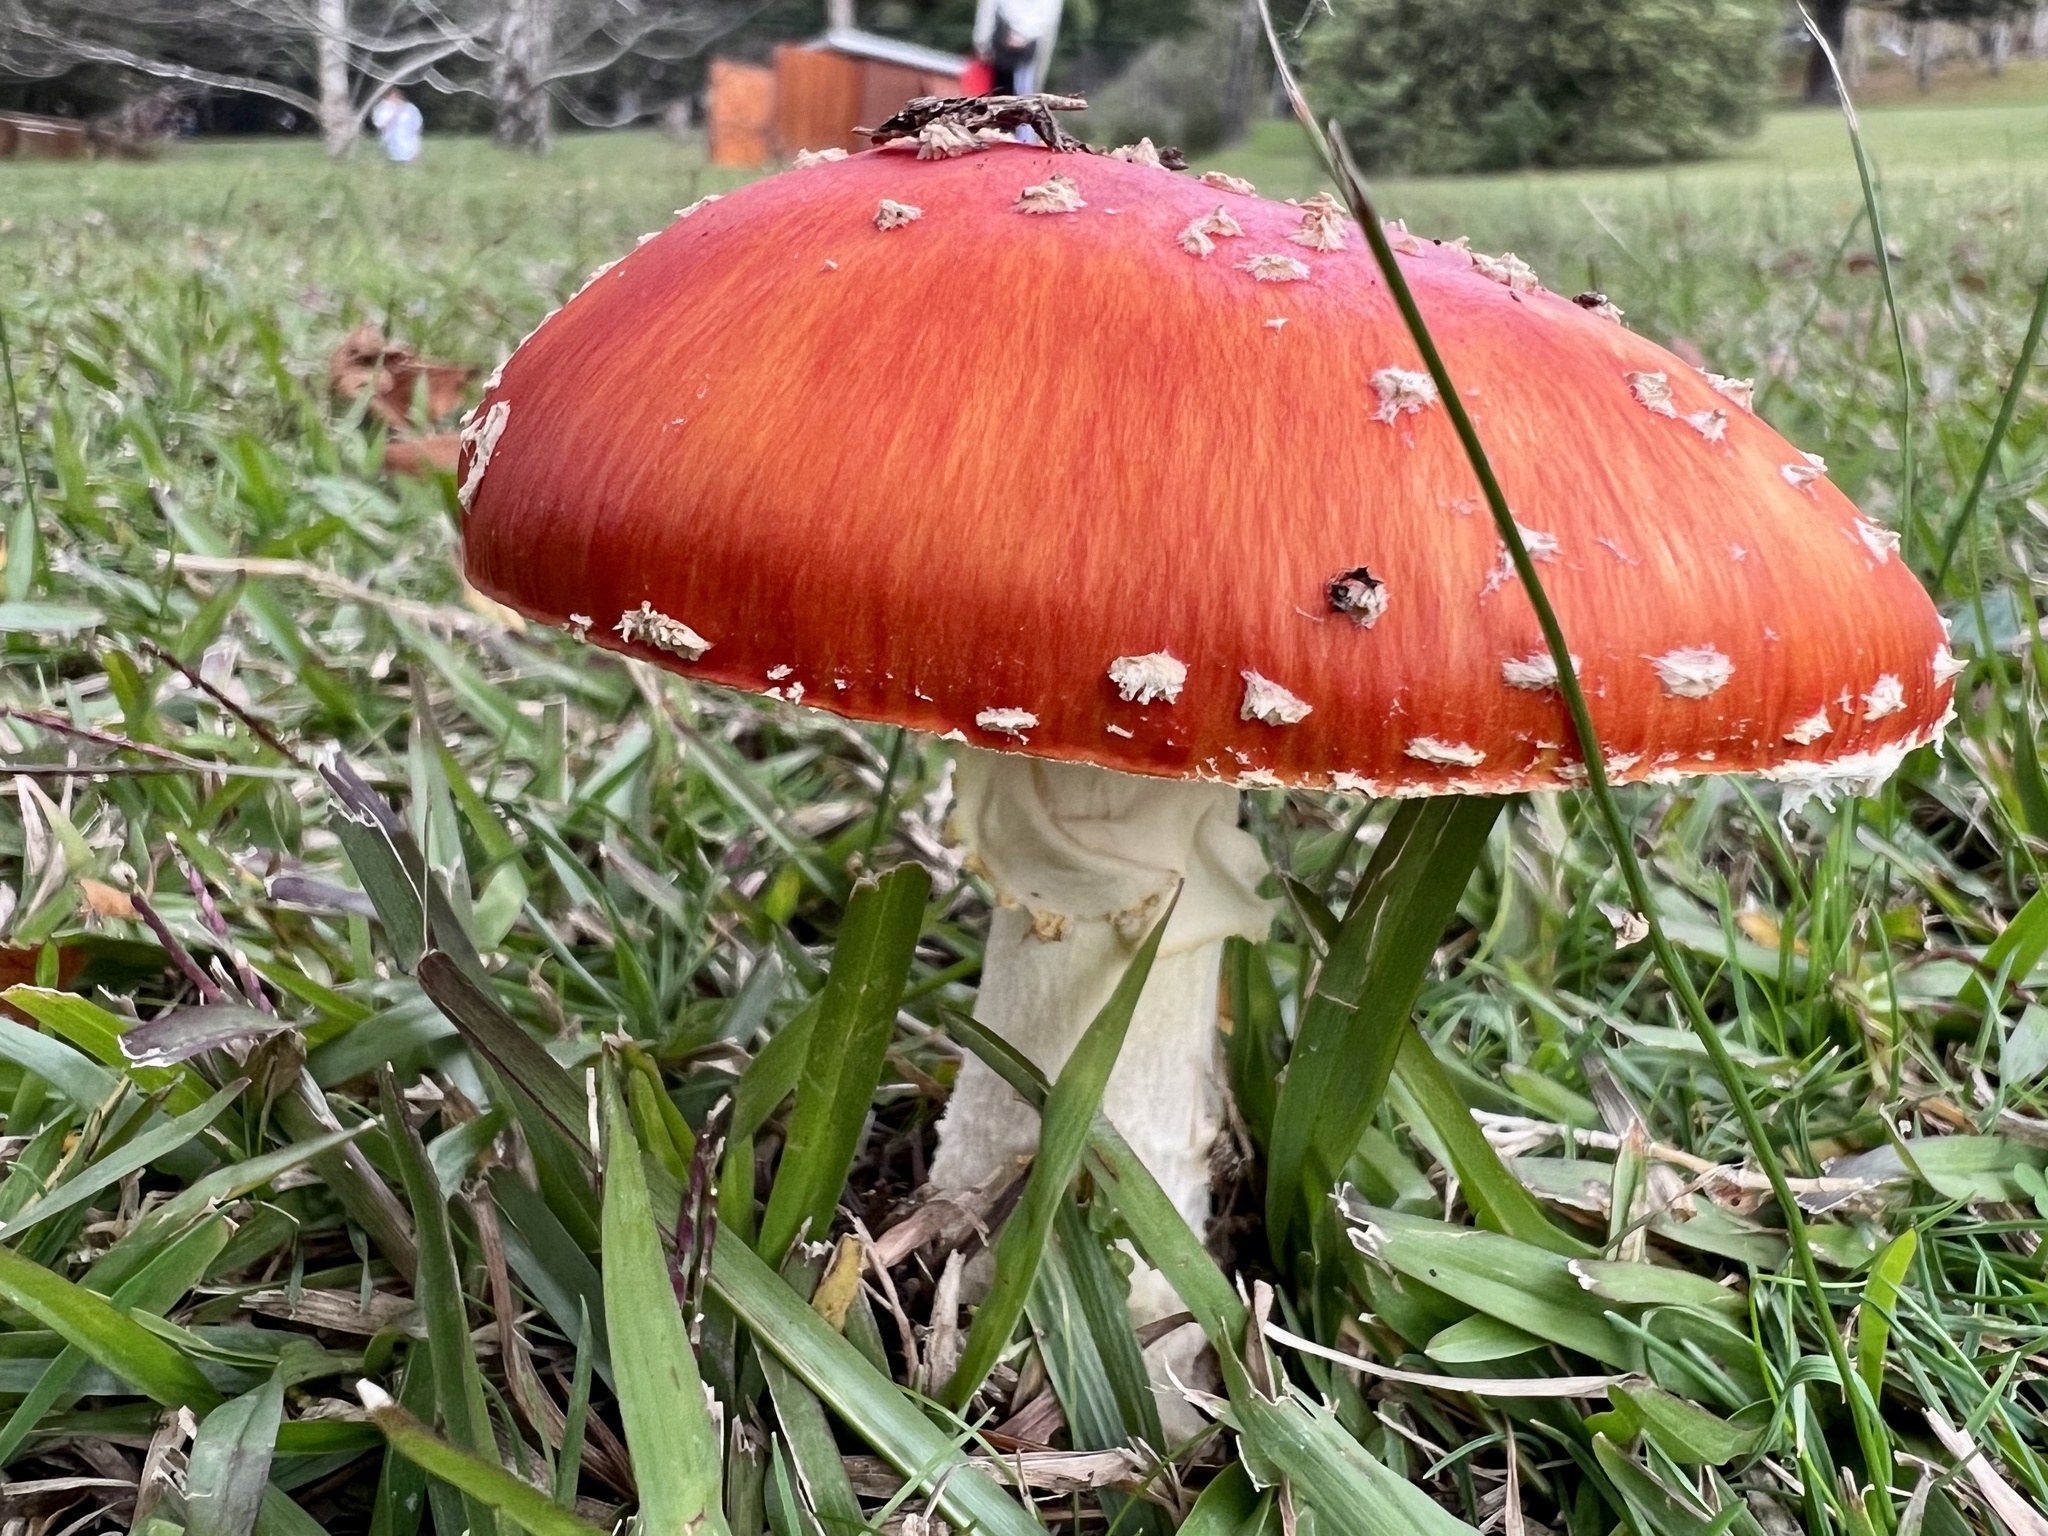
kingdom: Fungi
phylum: Basidiomycota
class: Agaricomycetes
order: Agaricales
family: Amanitaceae
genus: Amanita
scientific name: Amanita muscaria
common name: Fly agaric
